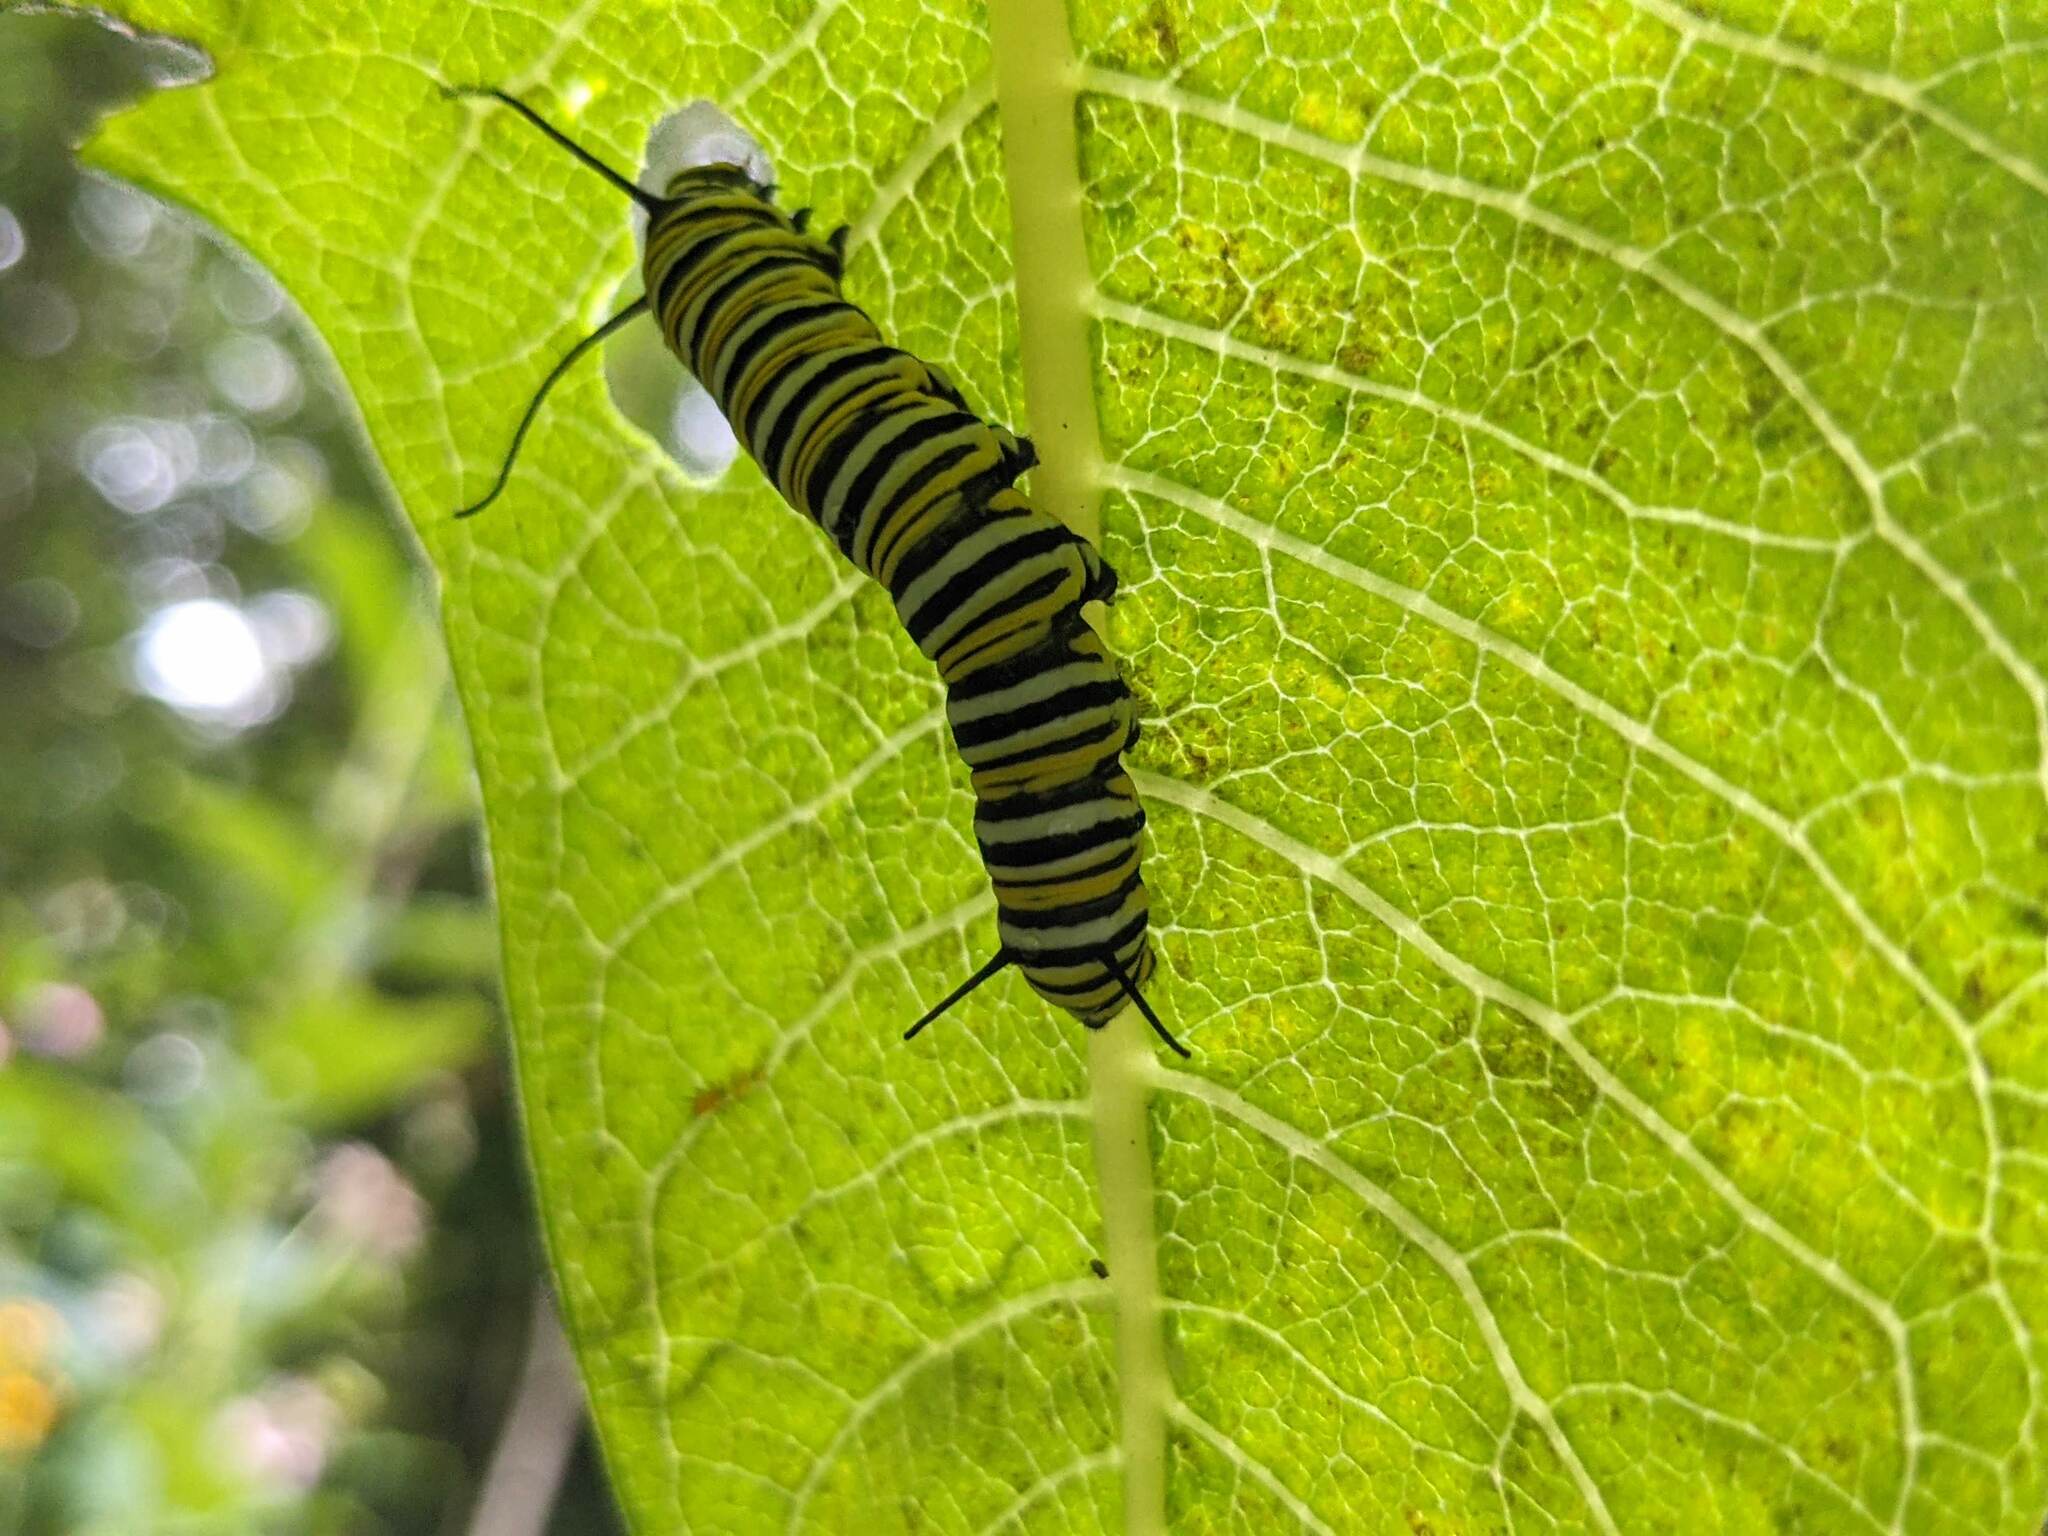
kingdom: Animalia
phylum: Arthropoda
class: Insecta
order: Lepidoptera
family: Nymphalidae
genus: Danaus
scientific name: Danaus plexippus
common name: Monarch
